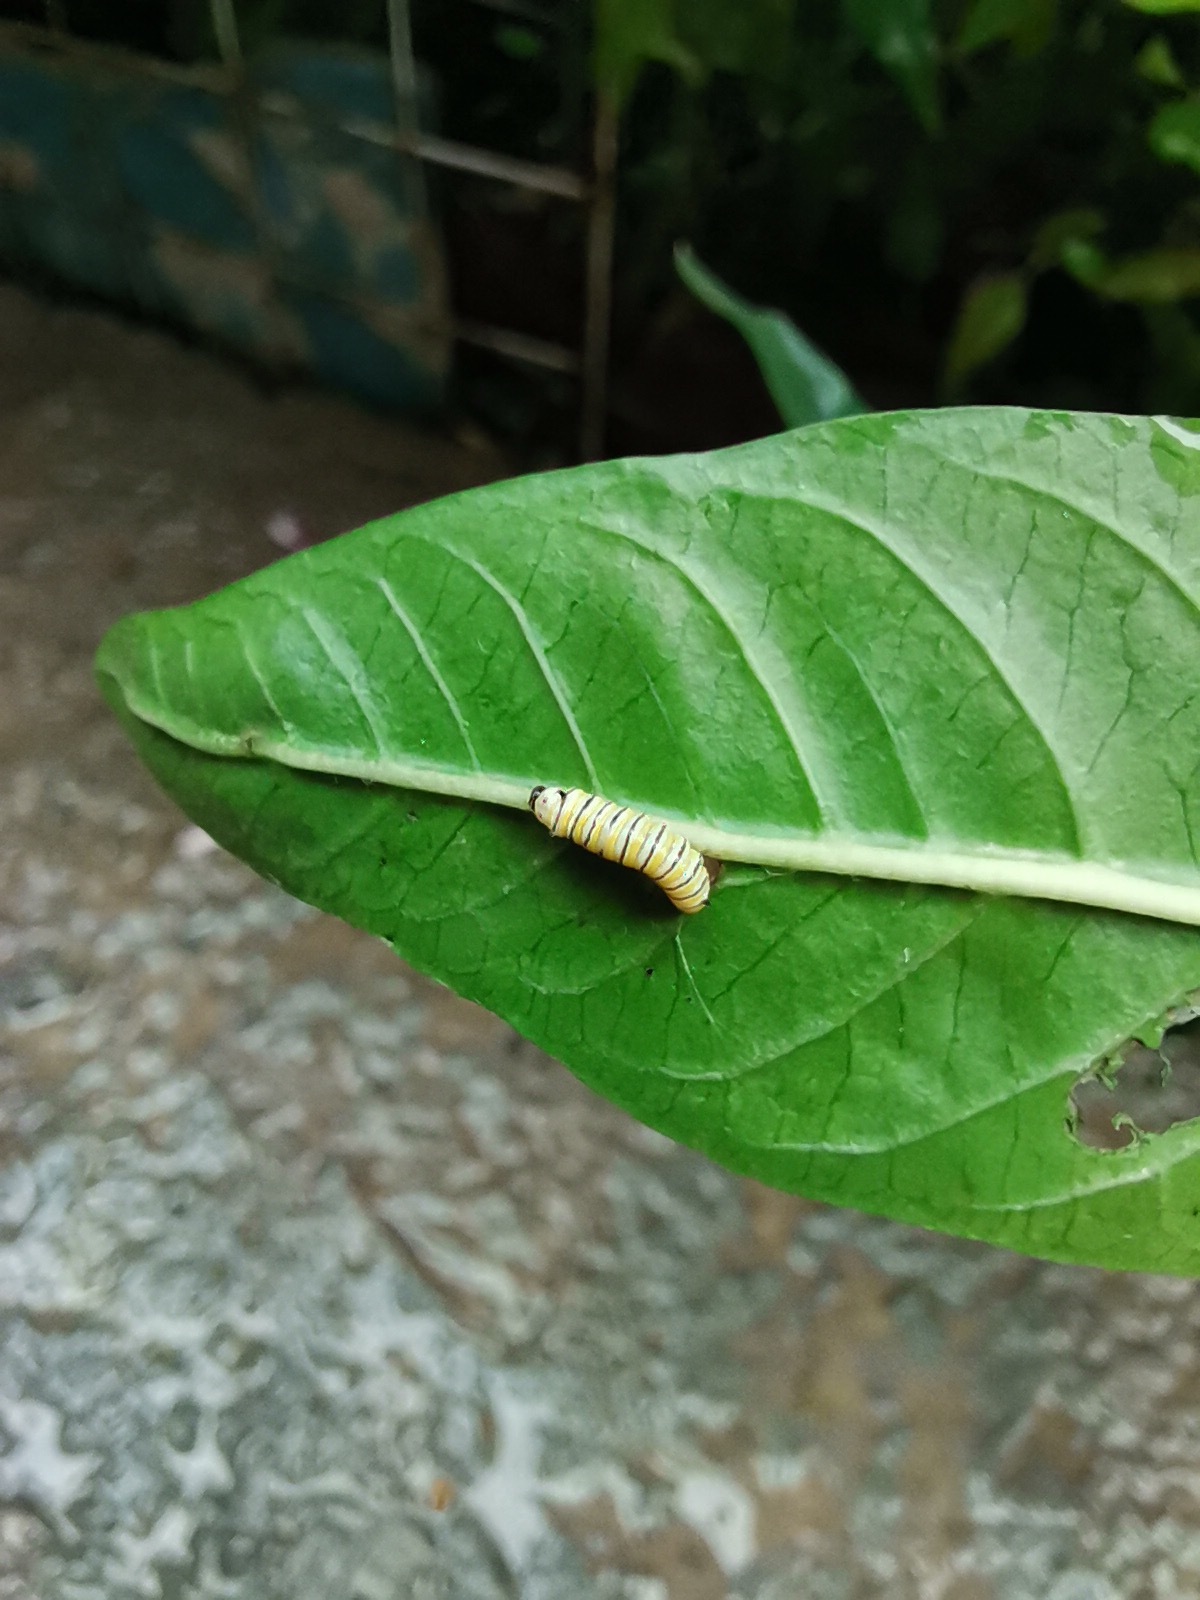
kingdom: Animalia
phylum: Arthropoda
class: Insecta
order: Lepidoptera
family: Nymphalidae
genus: Danaus
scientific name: Danaus plexippus
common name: Monarch
